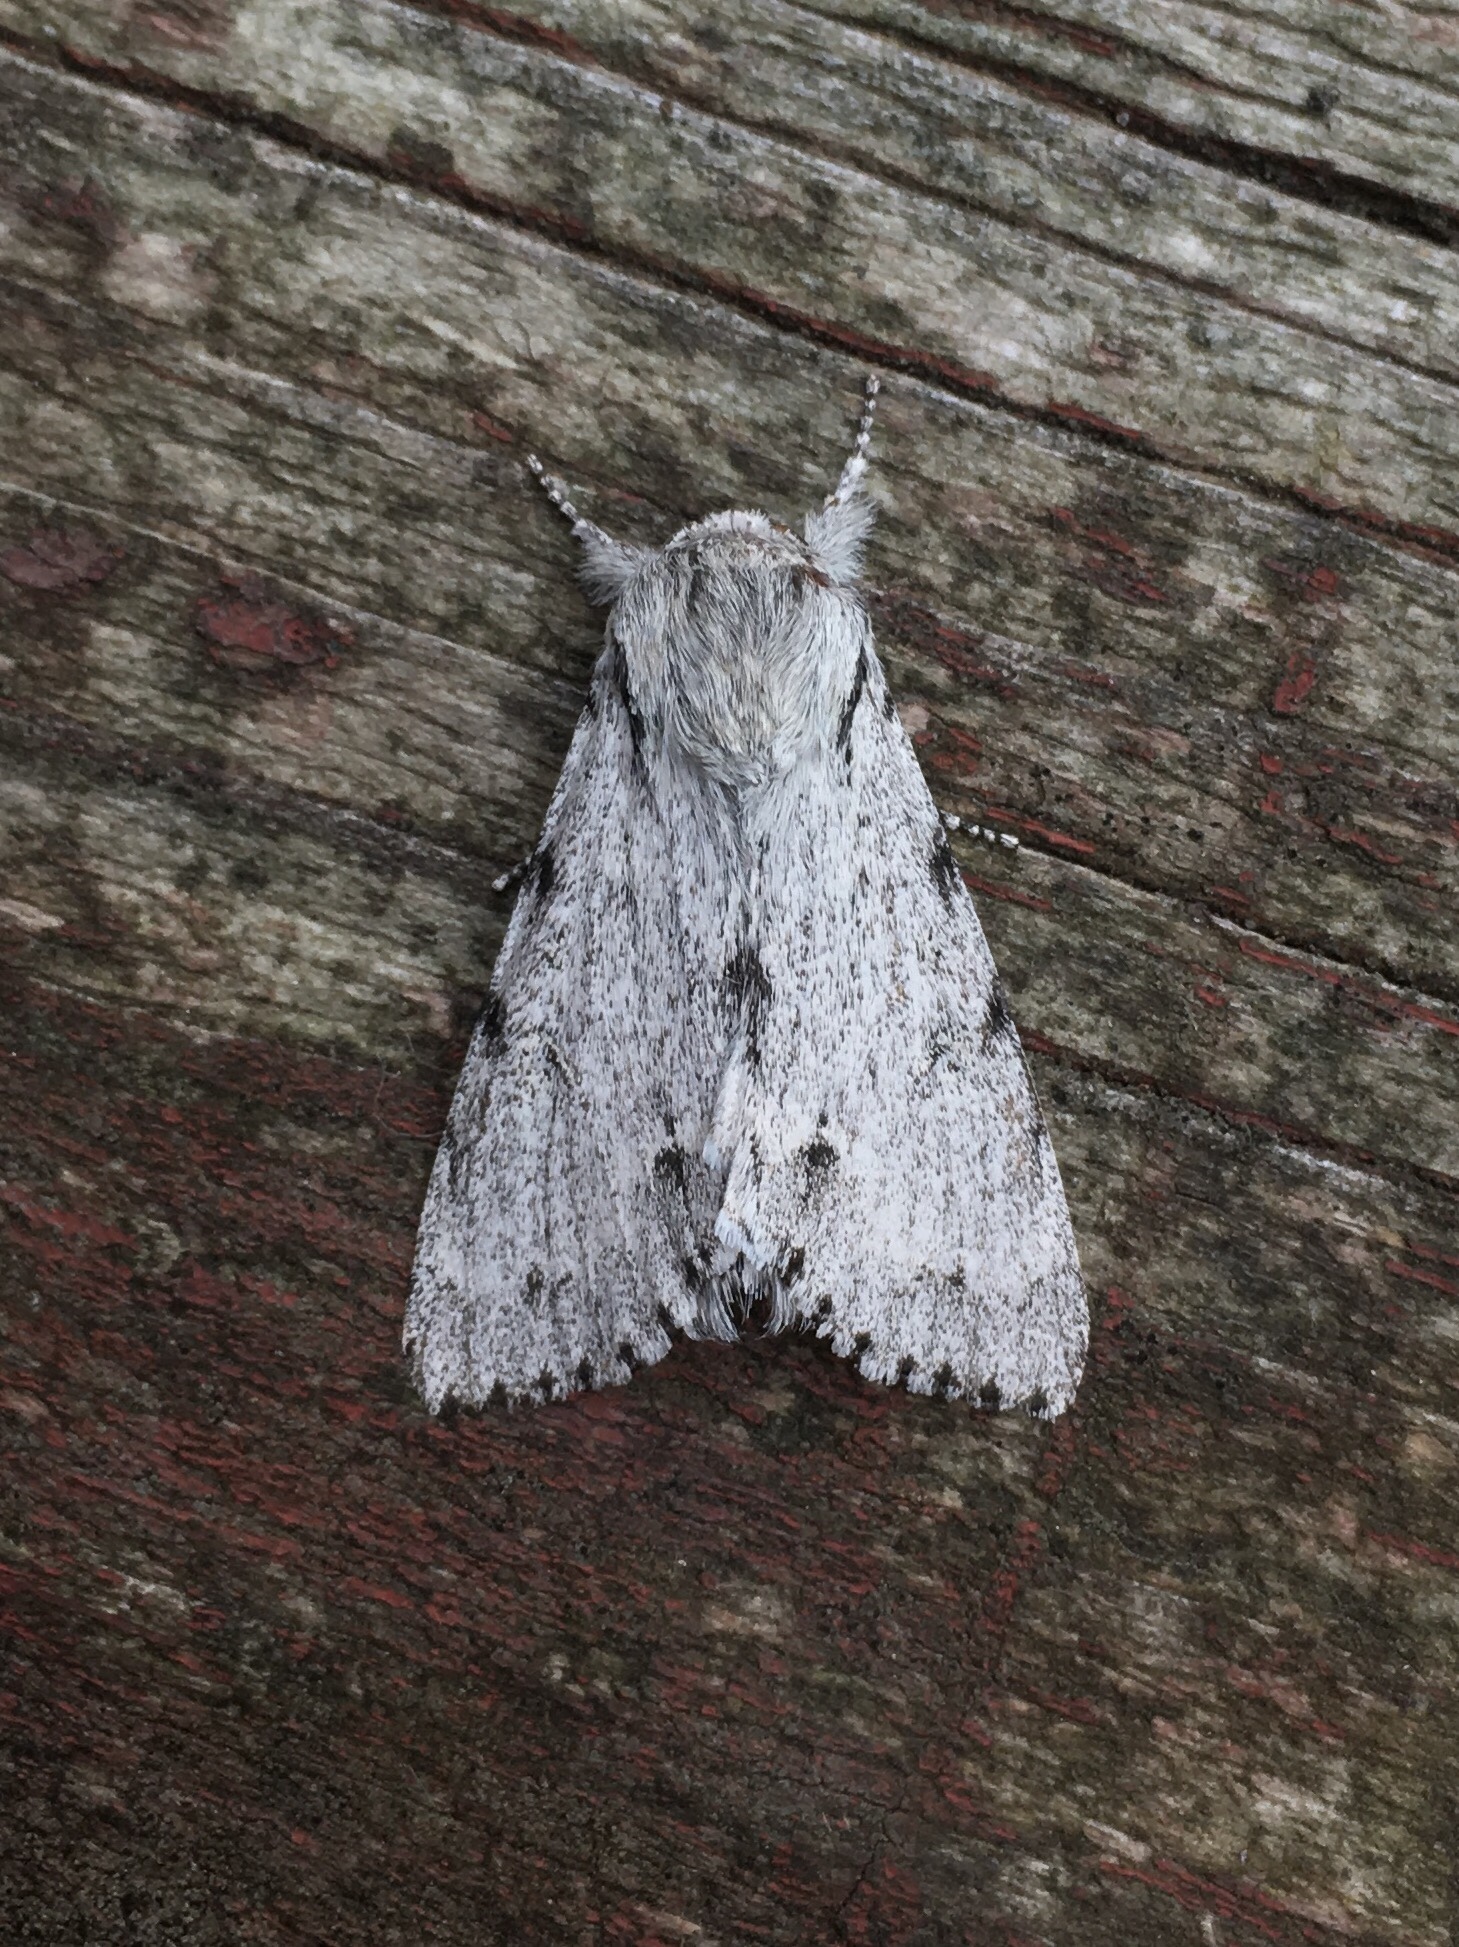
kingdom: Animalia
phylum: Arthropoda
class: Insecta
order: Lepidoptera
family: Noctuidae
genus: Acronicta
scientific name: Acronicta lepusculina
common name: Cottonwood dagger
